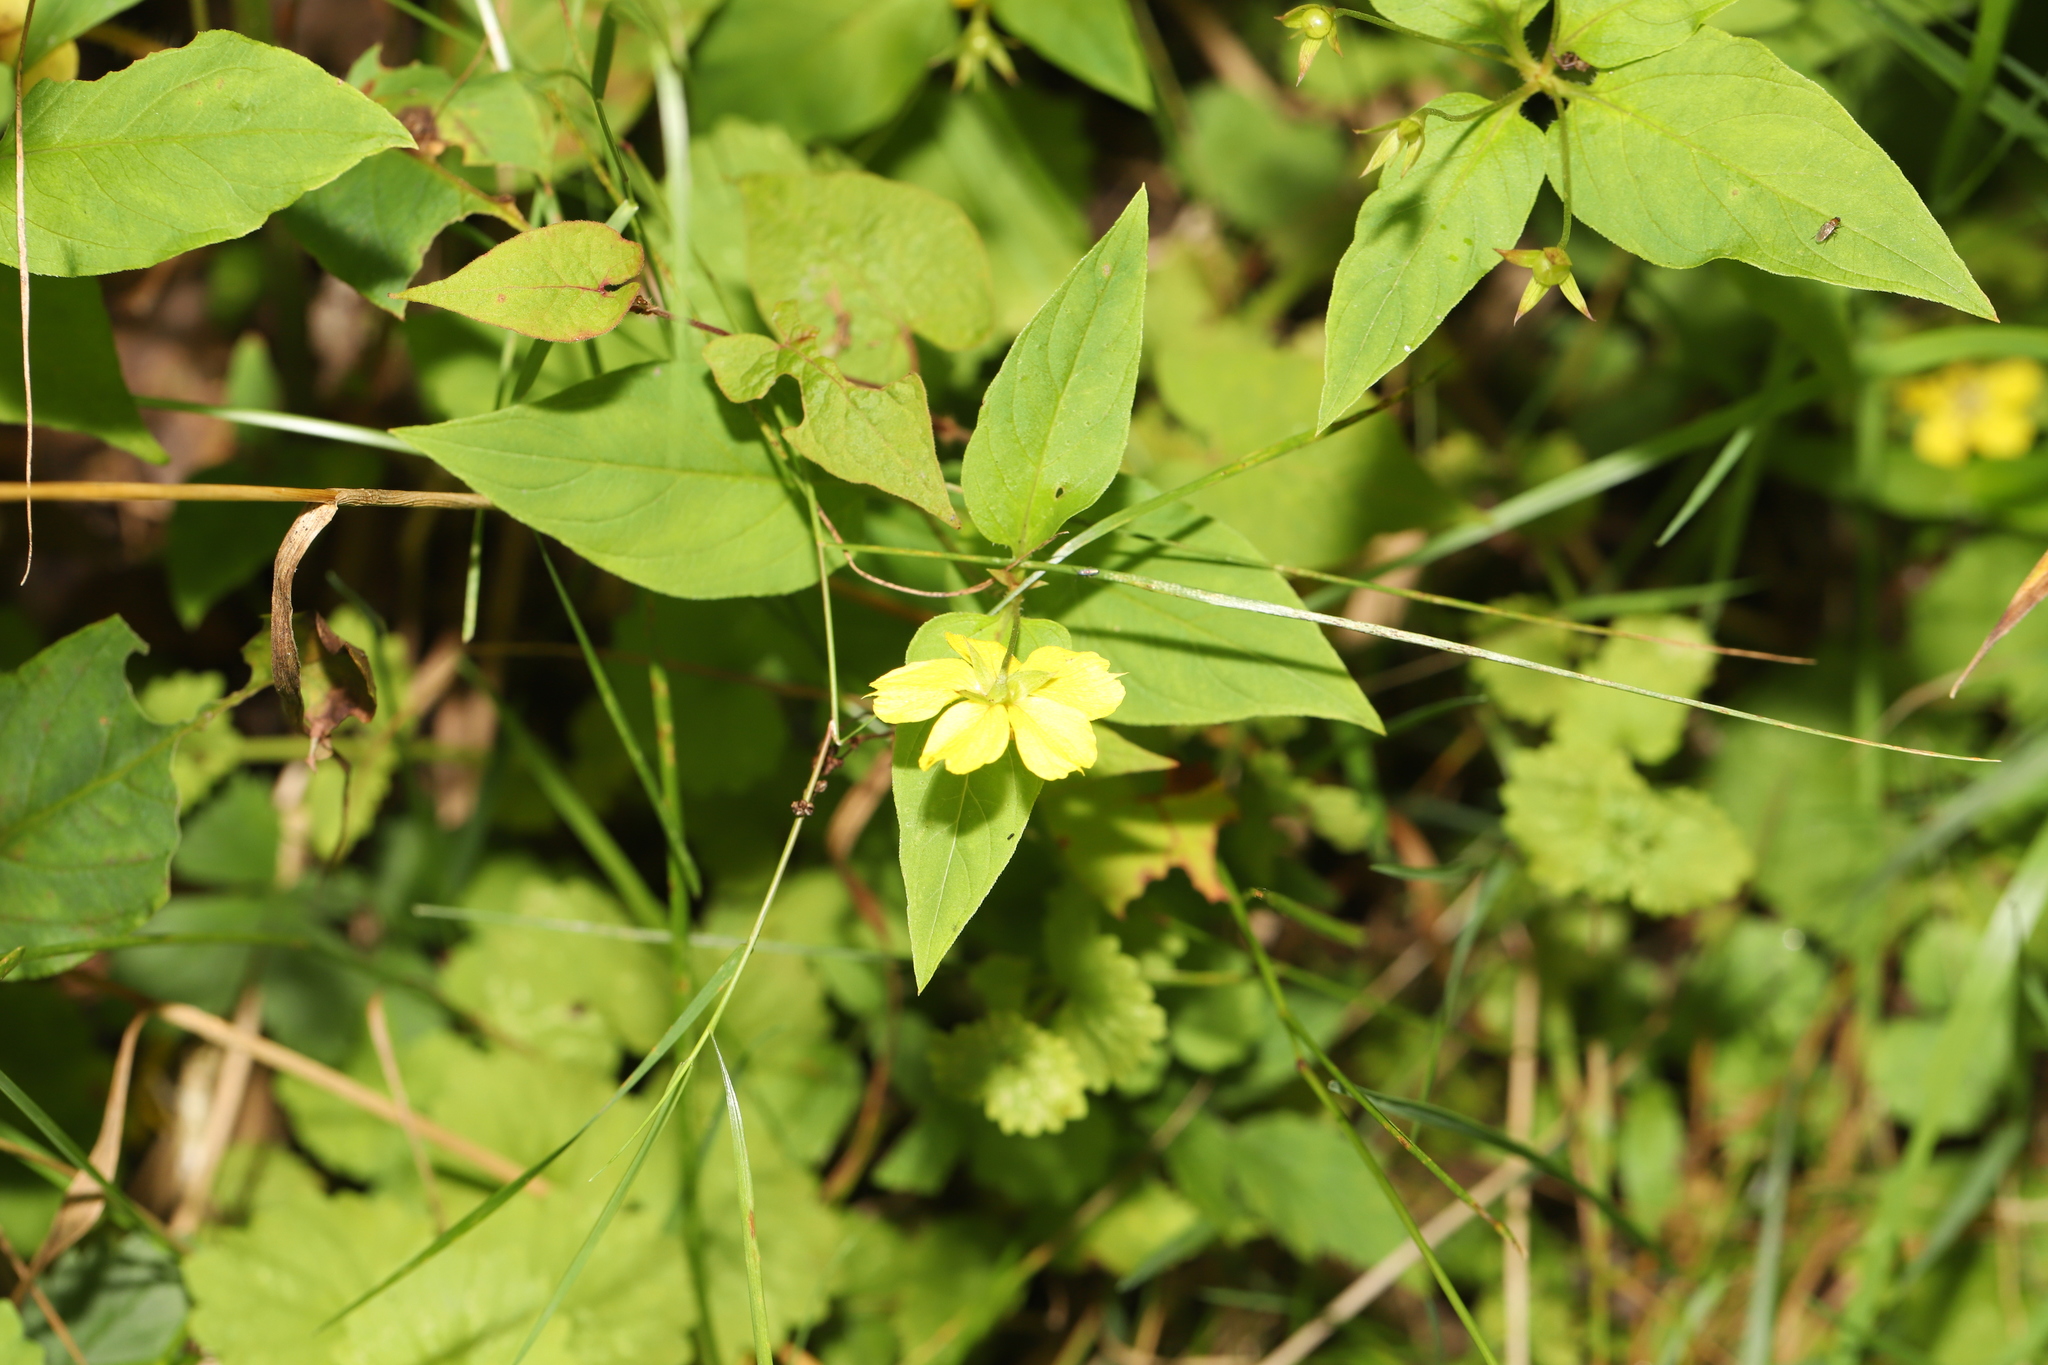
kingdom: Plantae
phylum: Tracheophyta
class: Magnoliopsida
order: Ericales
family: Primulaceae
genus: Lysimachia
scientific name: Lysimachia ciliata
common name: Fringed loosestrife
